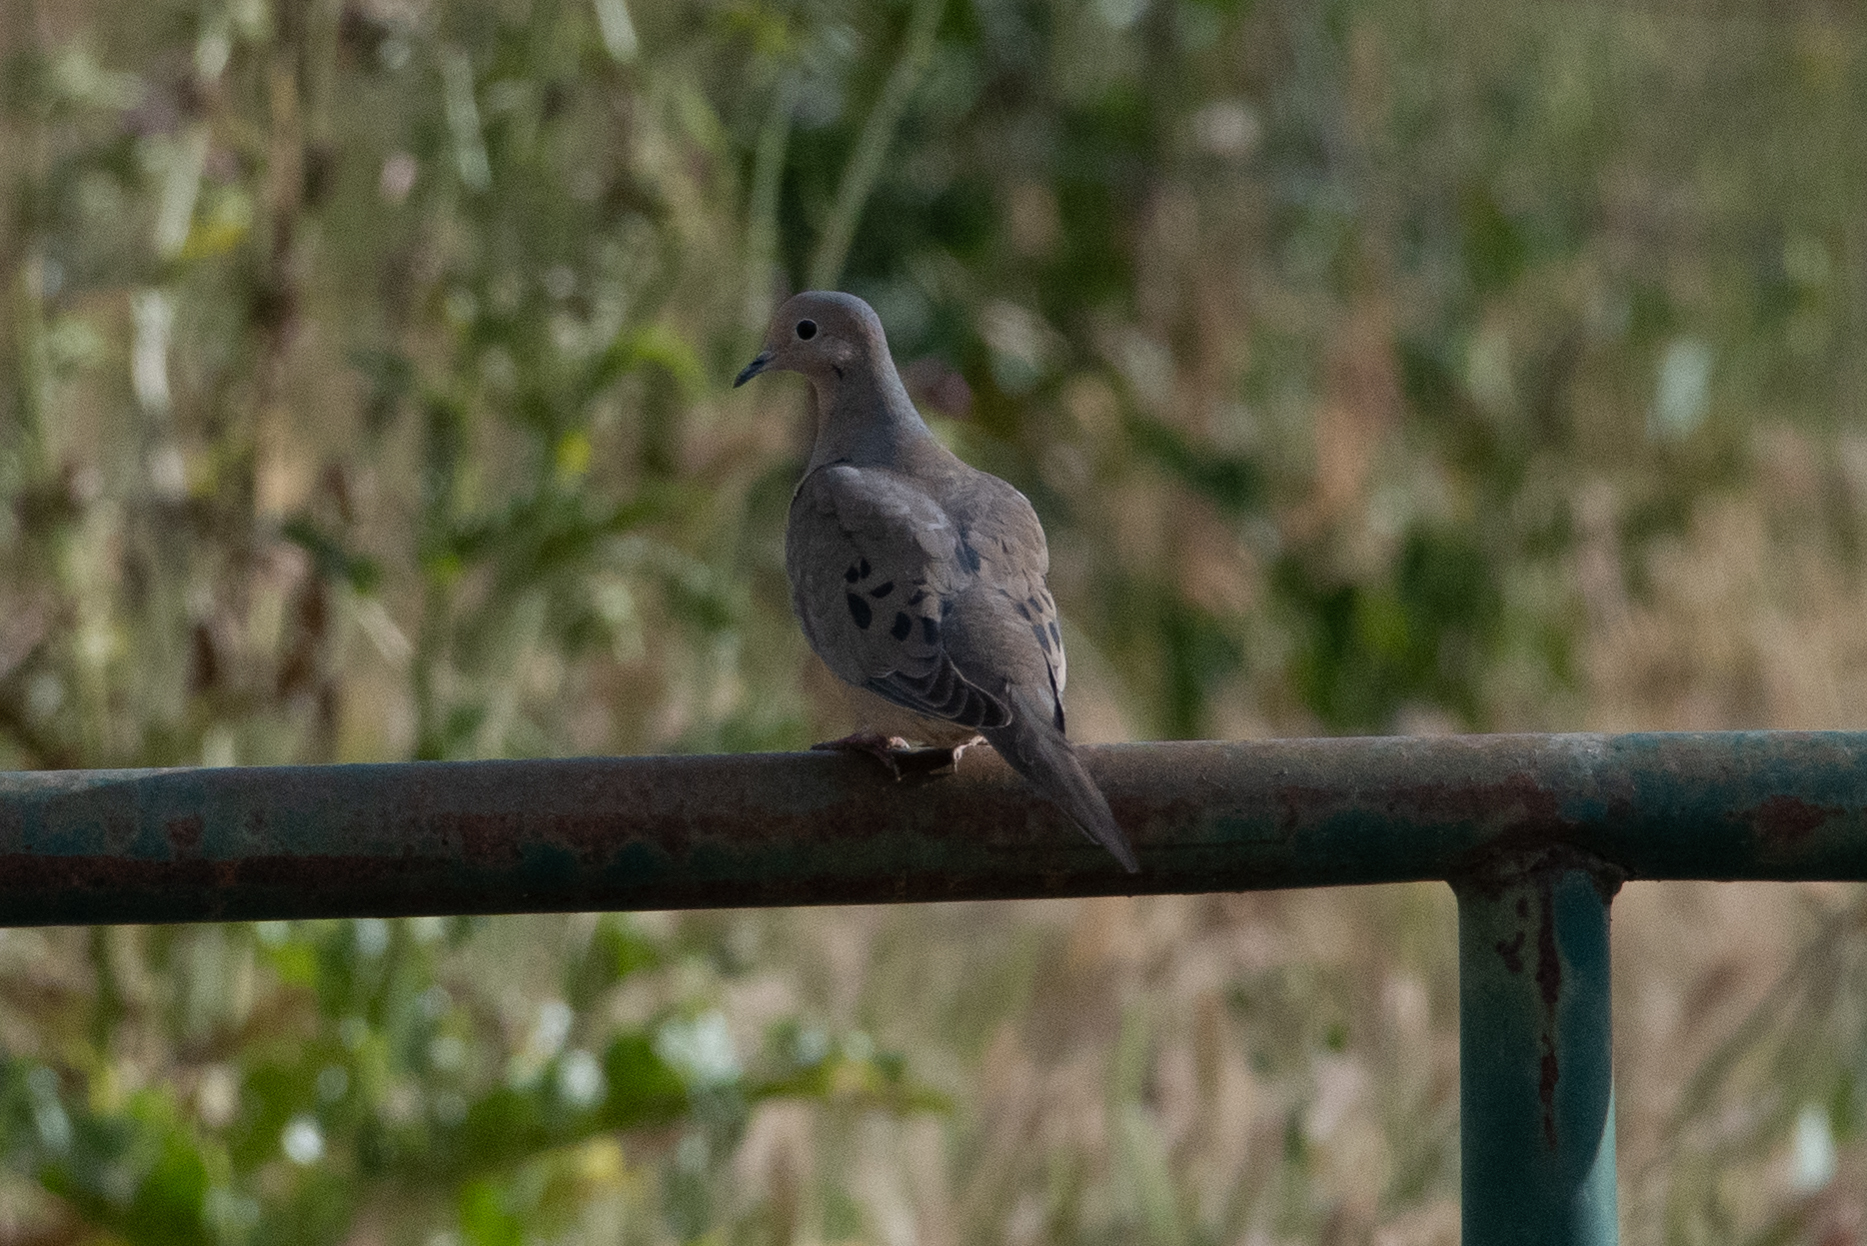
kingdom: Animalia
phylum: Chordata
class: Aves
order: Columbiformes
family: Columbidae
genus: Zenaida
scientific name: Zenaida macroura
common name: Mourning dove
